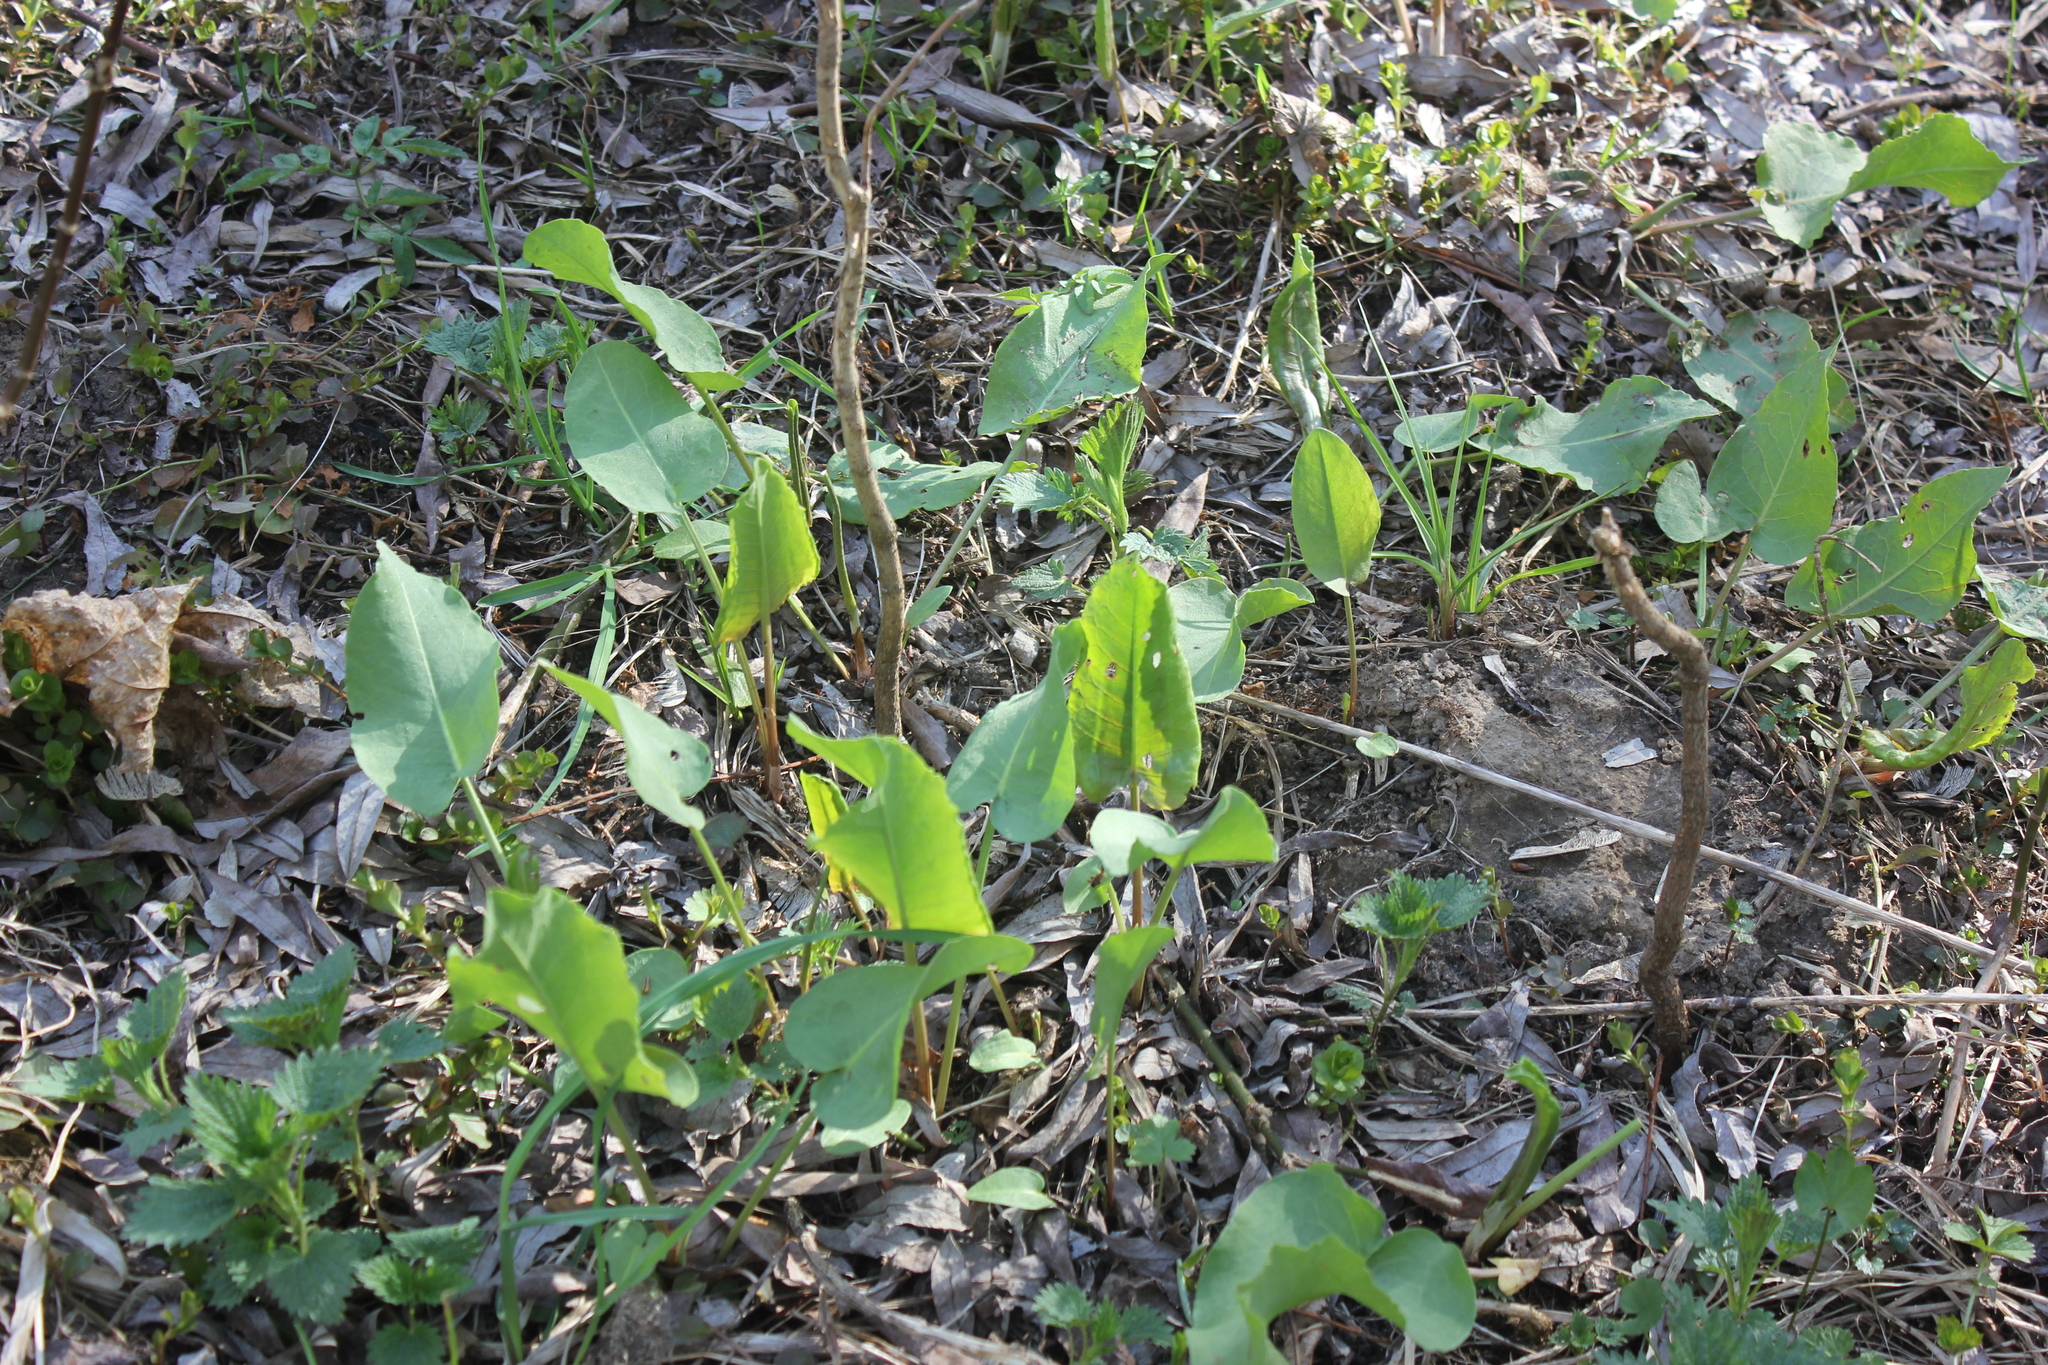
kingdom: Plantae
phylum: Tracheophyta
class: Magnoliopsida
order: Caryophyllales
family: Polygonaceae
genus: Rumex
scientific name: Rumex
